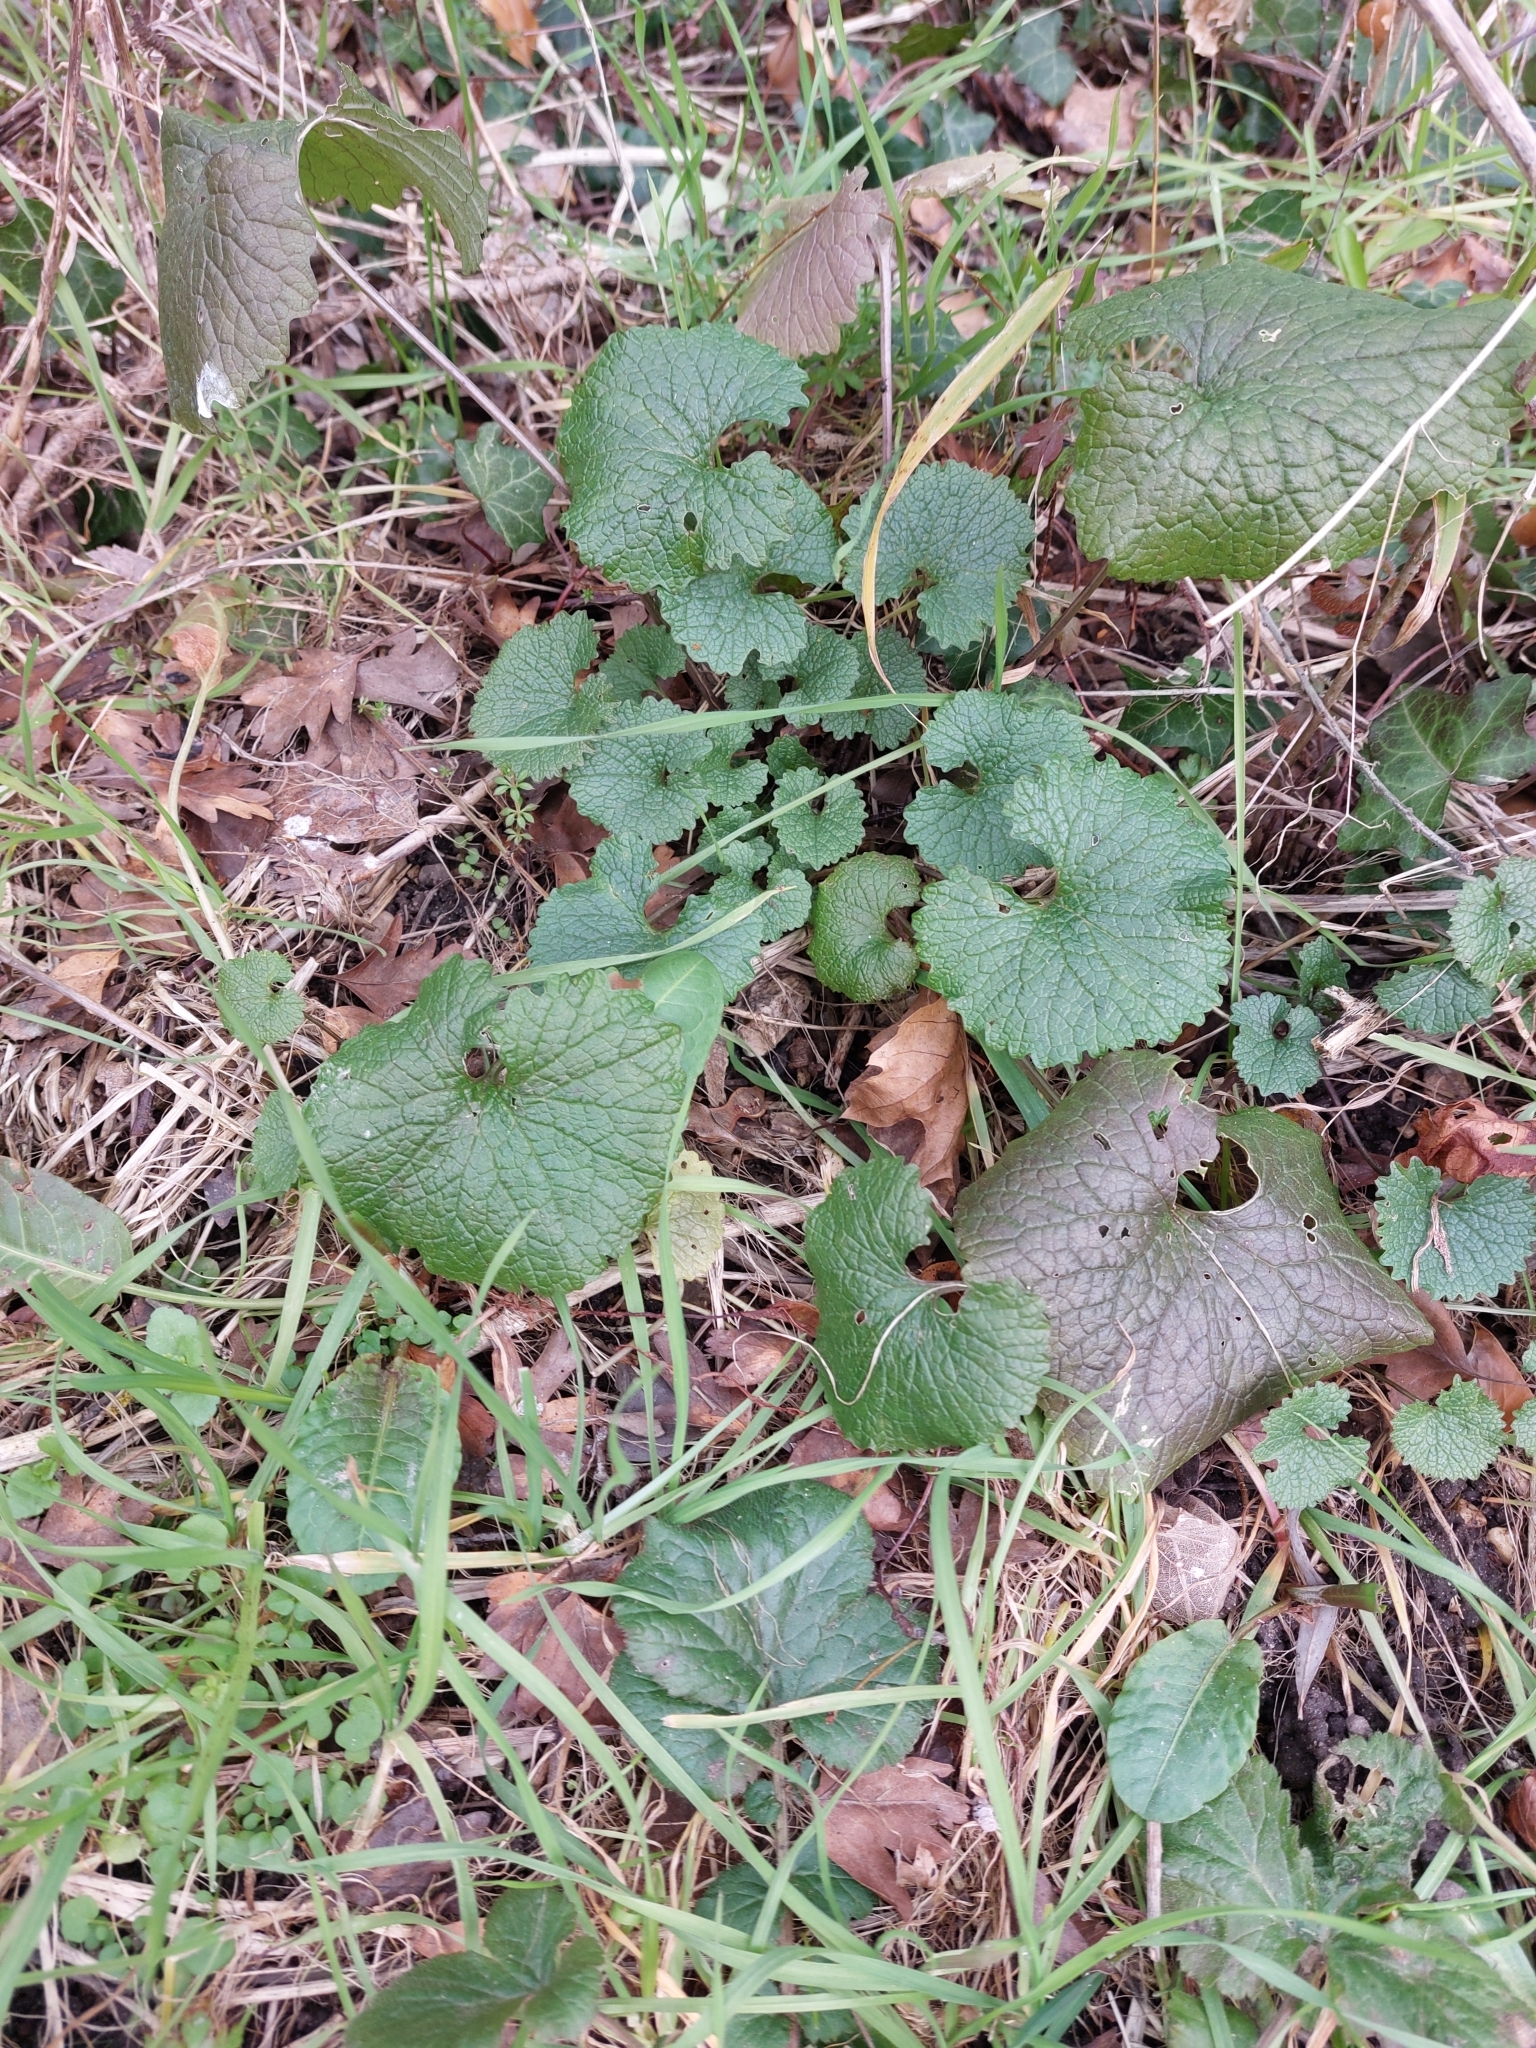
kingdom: Plantae
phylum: Tracheophyta
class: Magnoliopsida
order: Brassicales
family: Brassicaceae
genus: Alliaria
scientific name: Alliaria petiolata
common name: Garlic mustard
